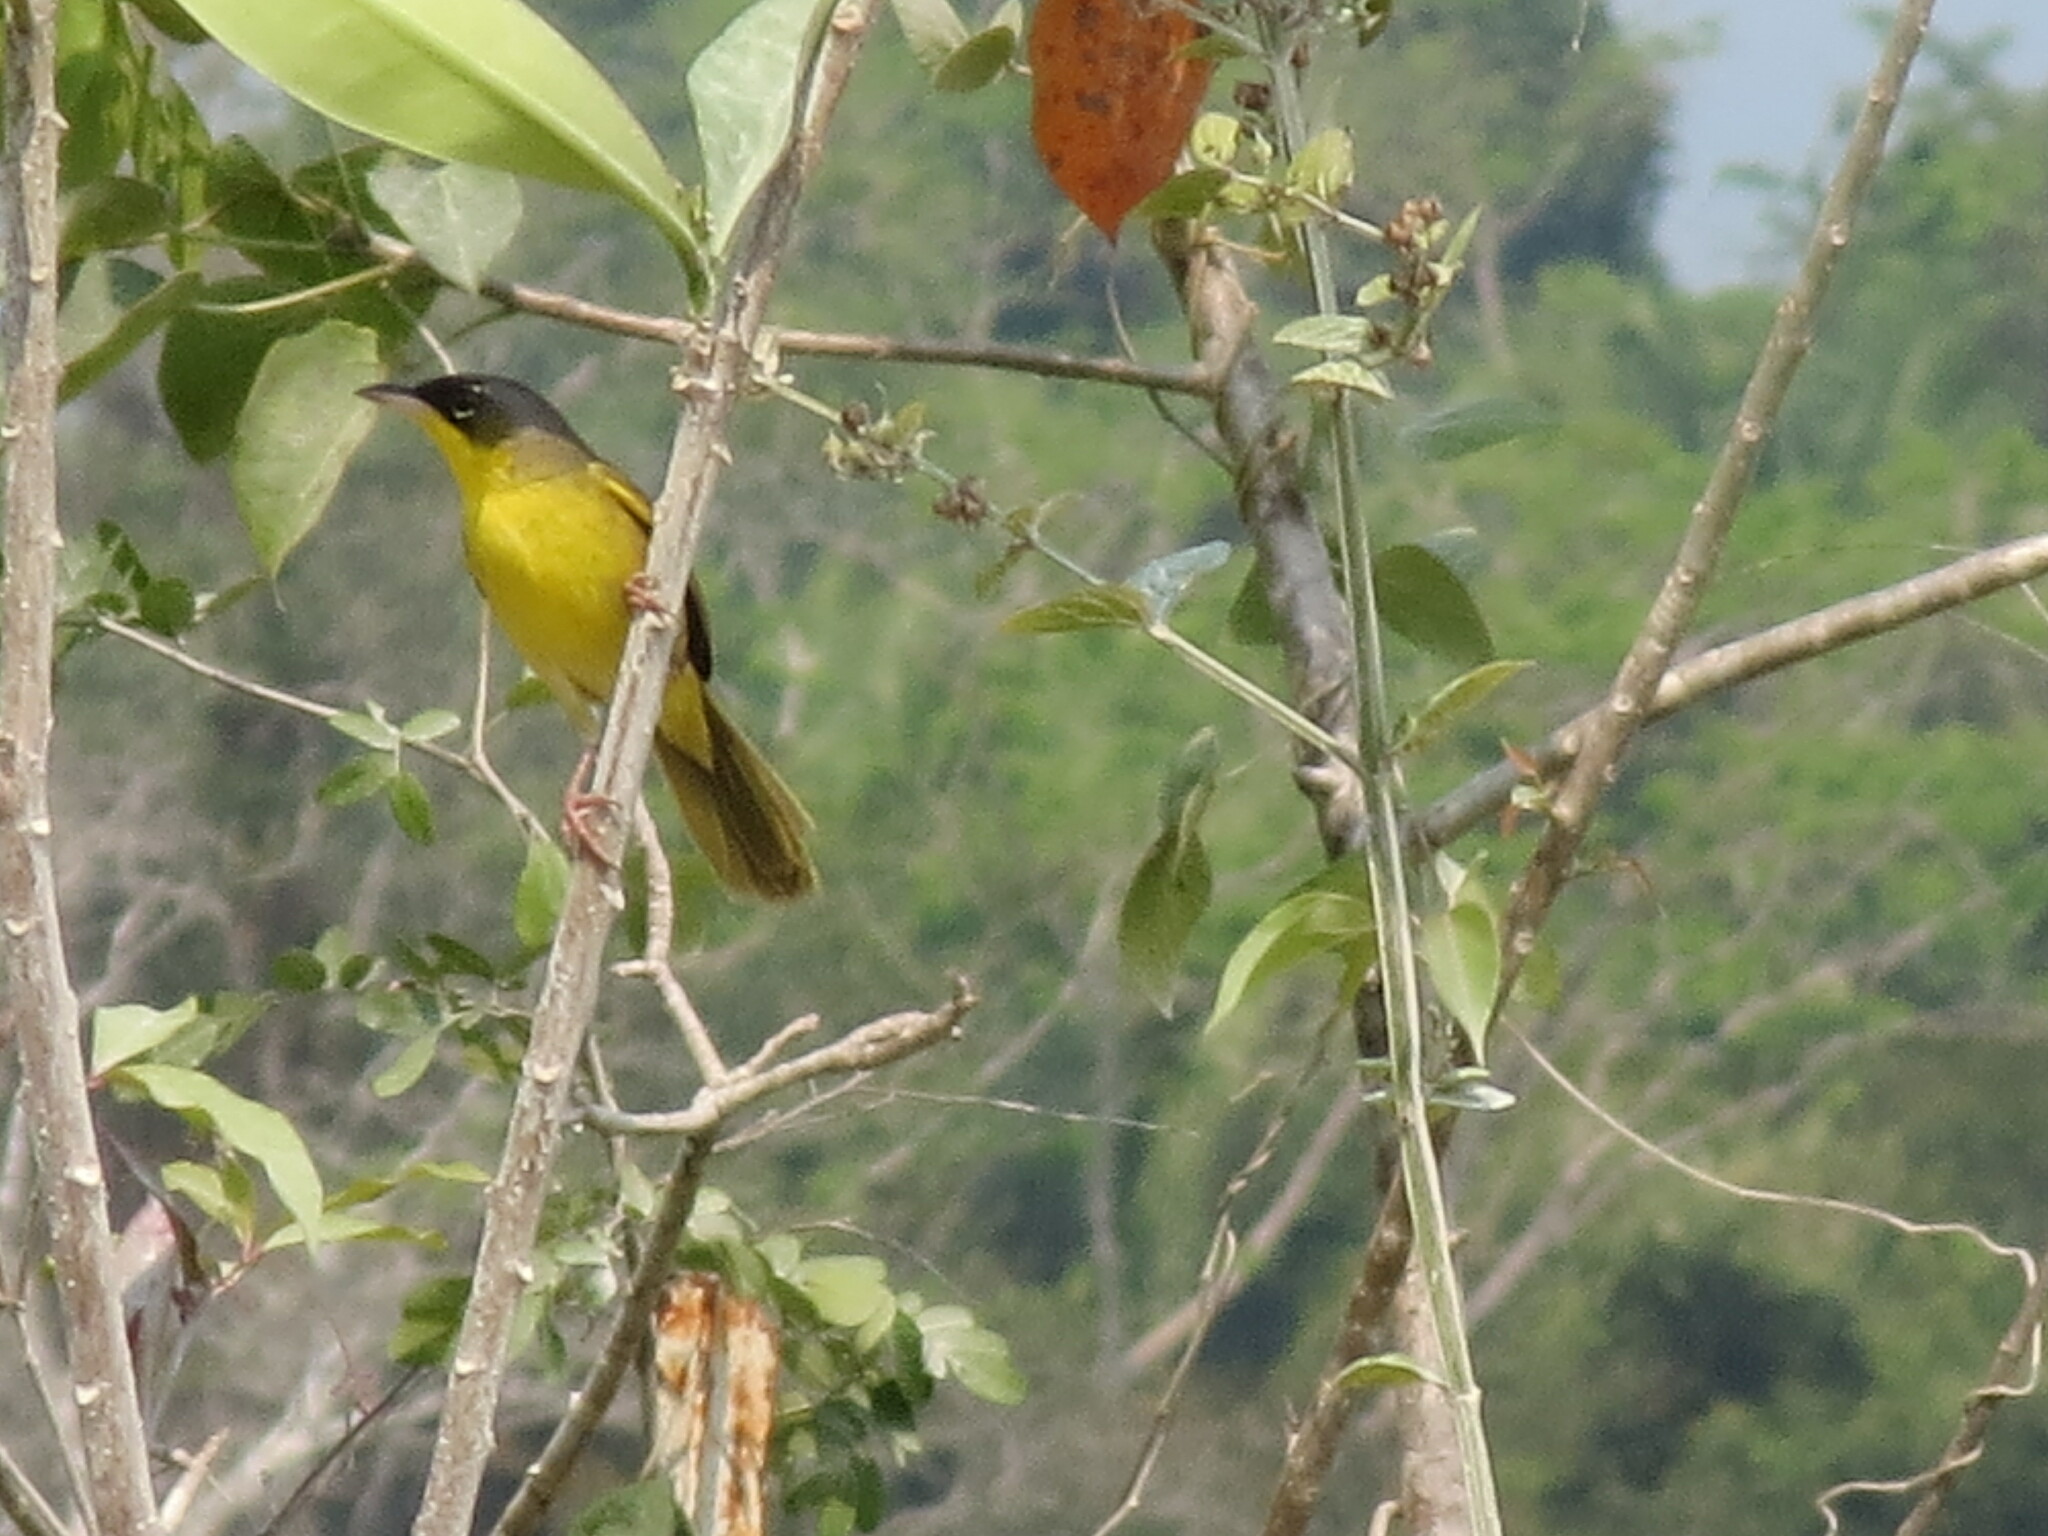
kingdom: Animalia
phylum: Chordata
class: Aves
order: Passeriformes
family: Parulidae
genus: Geothlypis
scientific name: Geothlypis poliocephala
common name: Gray-crowned yellowthroat
